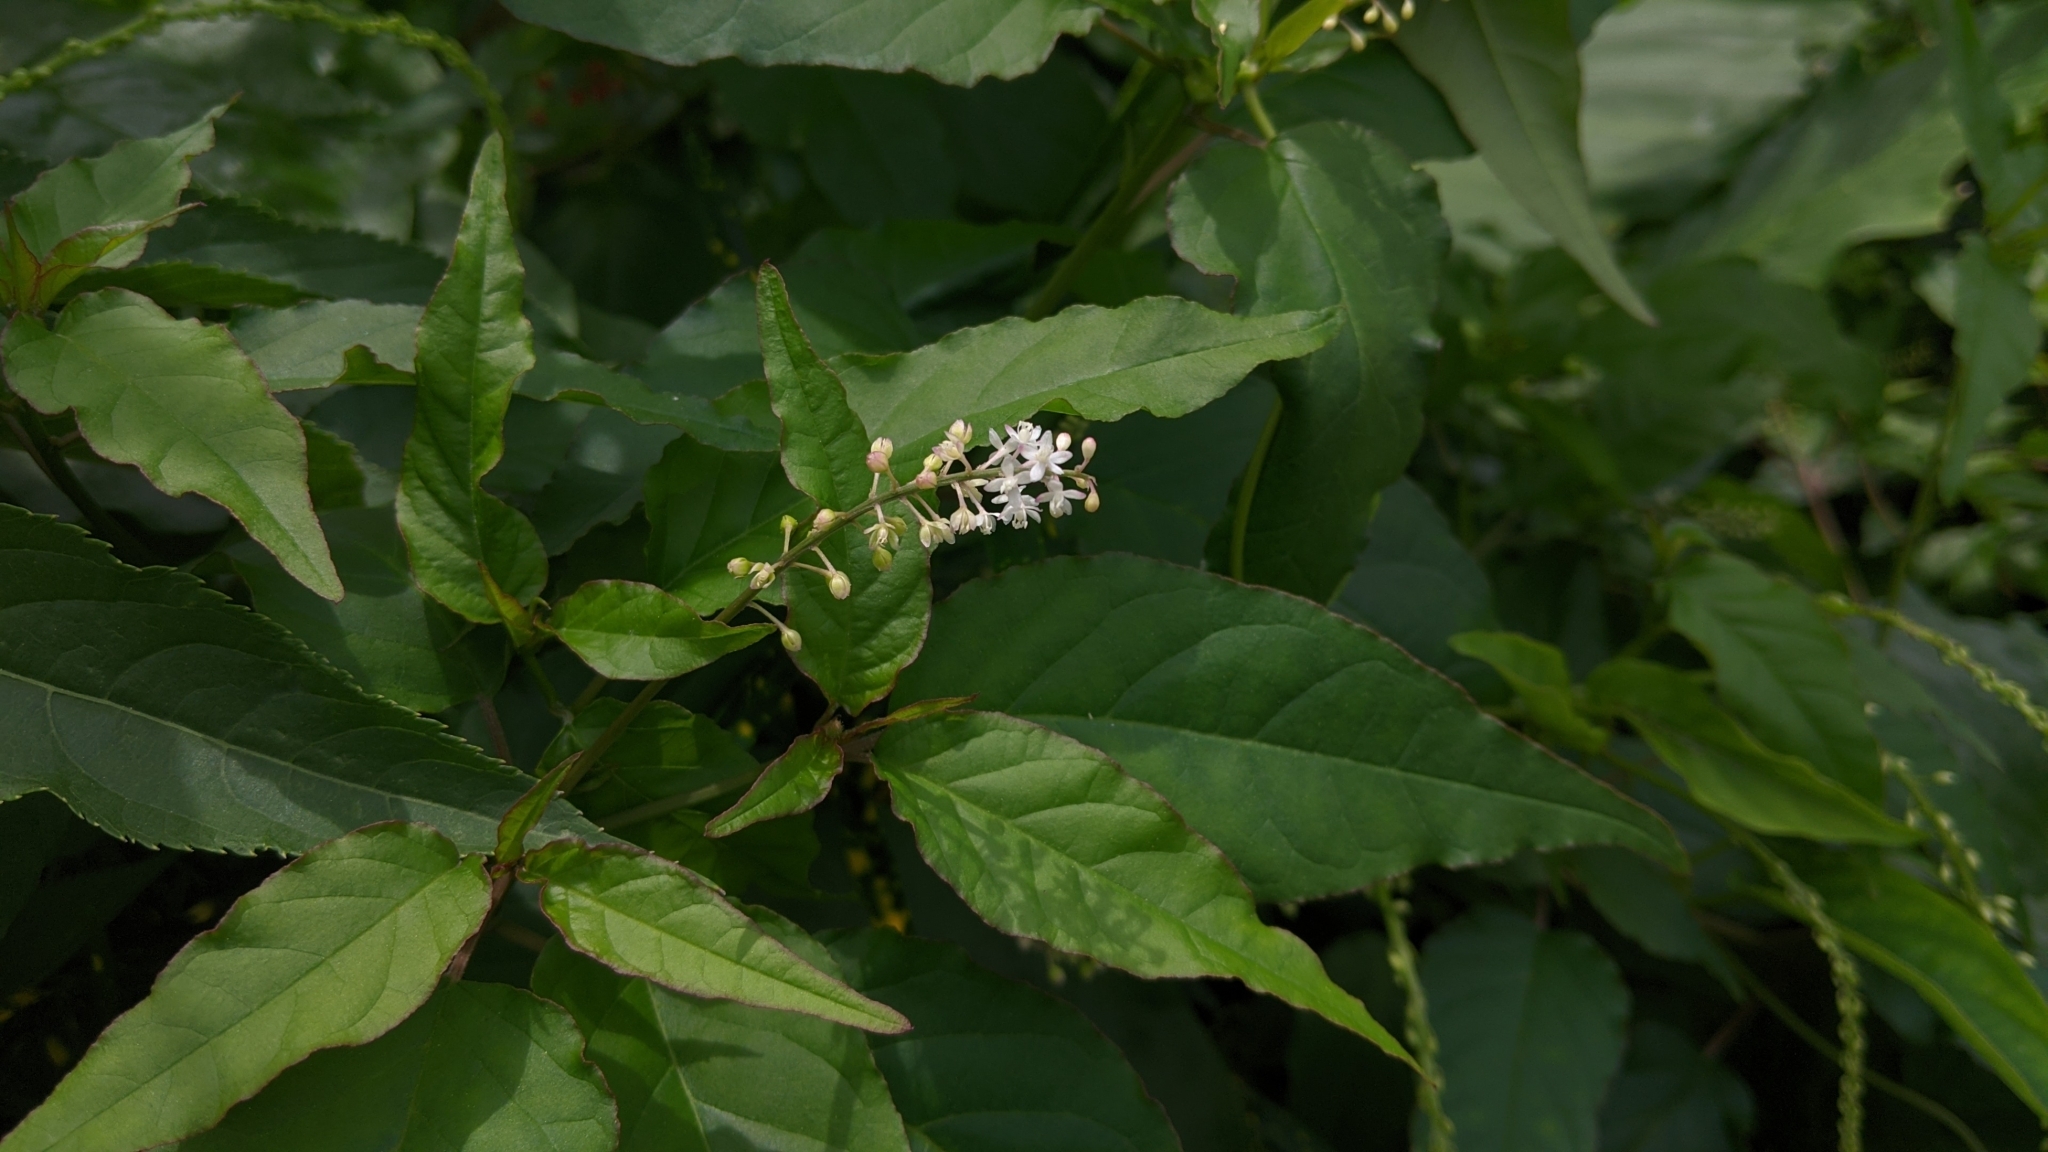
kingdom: Plantae
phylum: Tracheophyta
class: Magnoliopsida
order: Caryophyllales
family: Phytolaccaceae
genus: Rivina
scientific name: Rivina humilis
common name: Rougeplant
